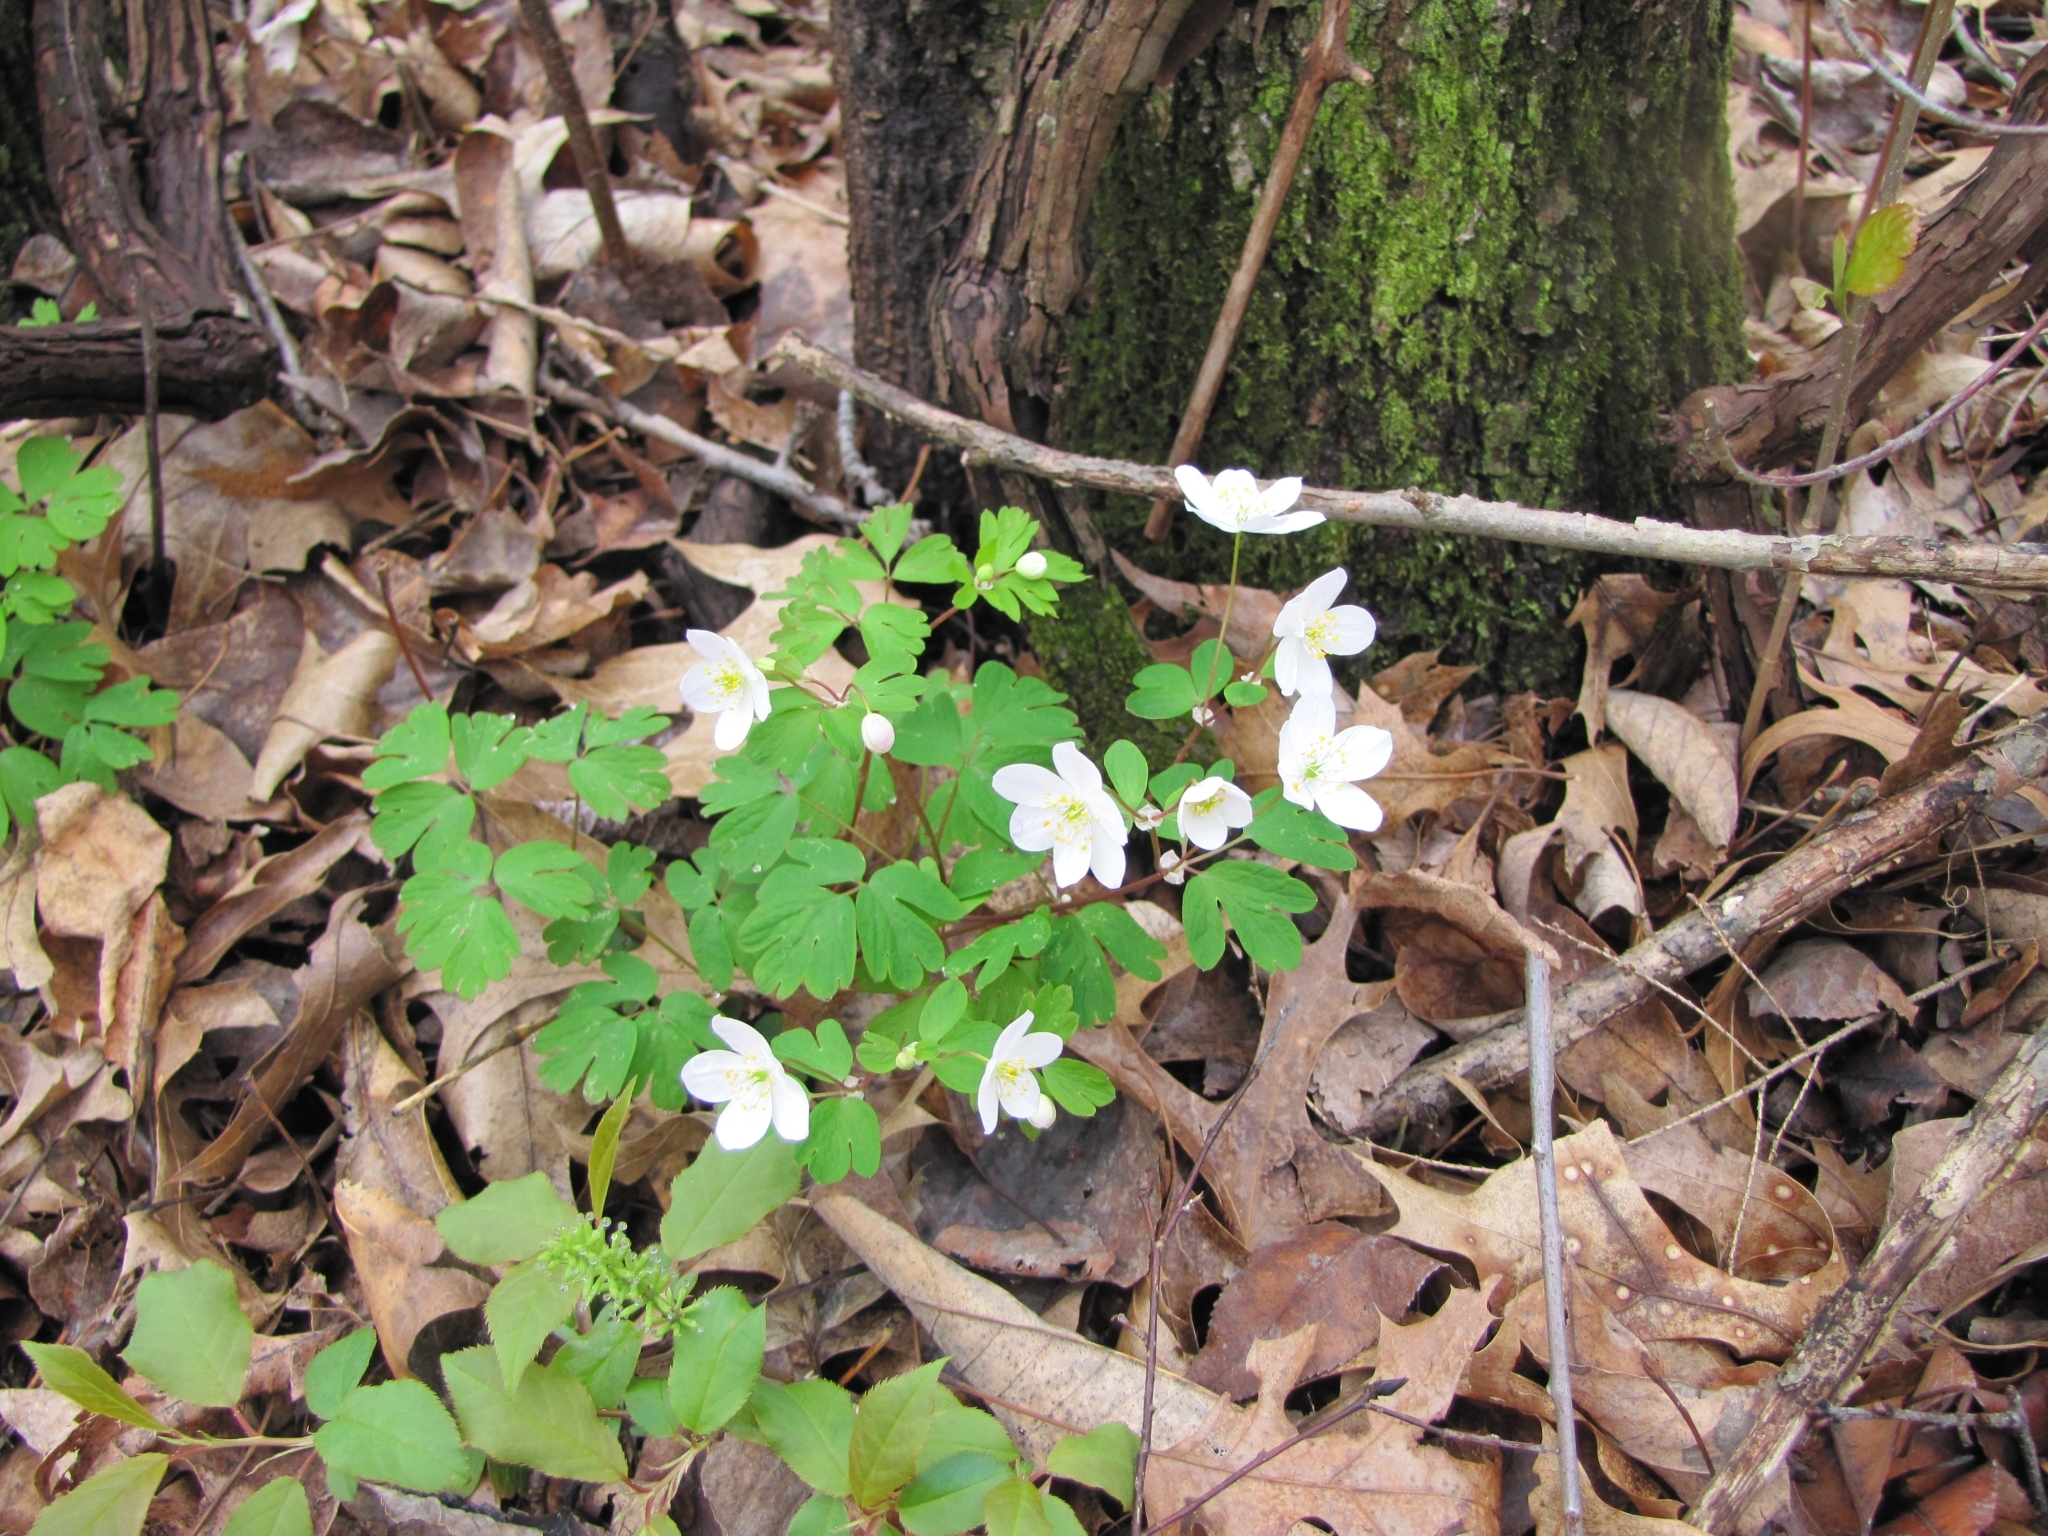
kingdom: Plantae
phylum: Tracheophyta
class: Magnoliopsida
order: Ranunculales
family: Ranunculaceae
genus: Enemion
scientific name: Enemion biternatum
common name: Eastern false rue-anemone
